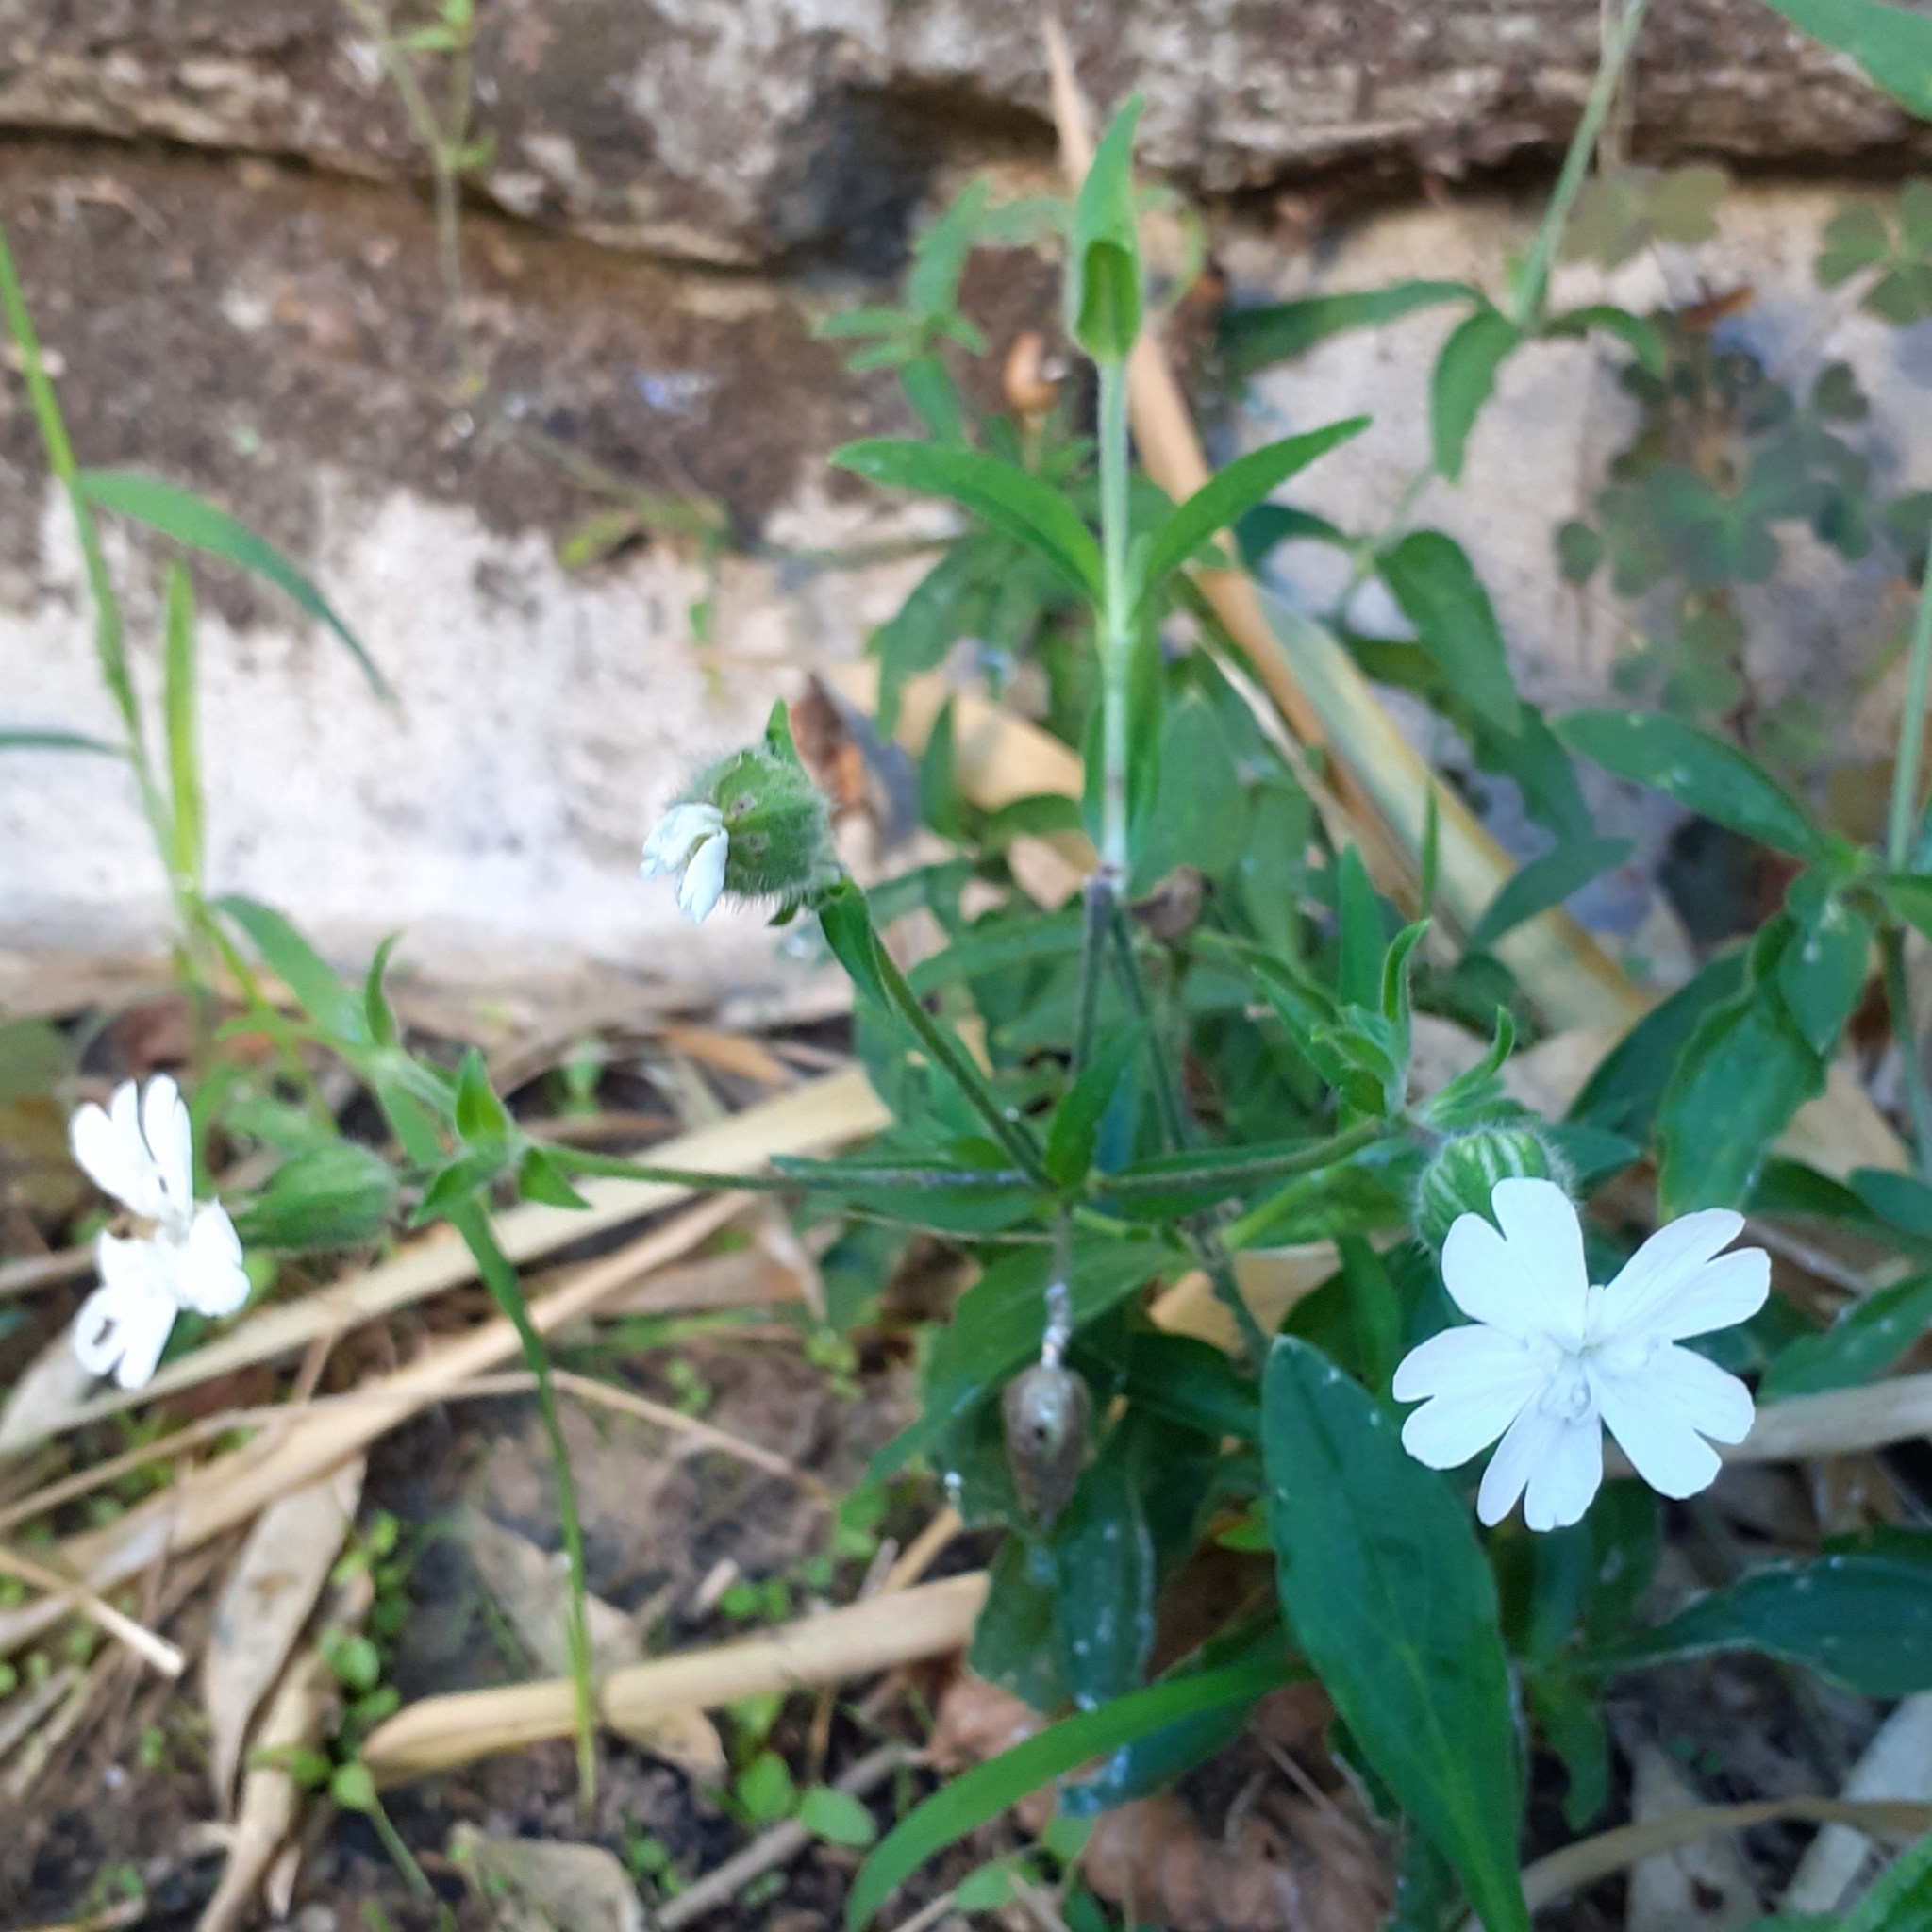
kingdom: Plantae
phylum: Tracheophyta
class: Magnoliopsida
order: Caryophyllales
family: Caryophyllaceae
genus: Silene
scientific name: Silene latifolia
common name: White campion
